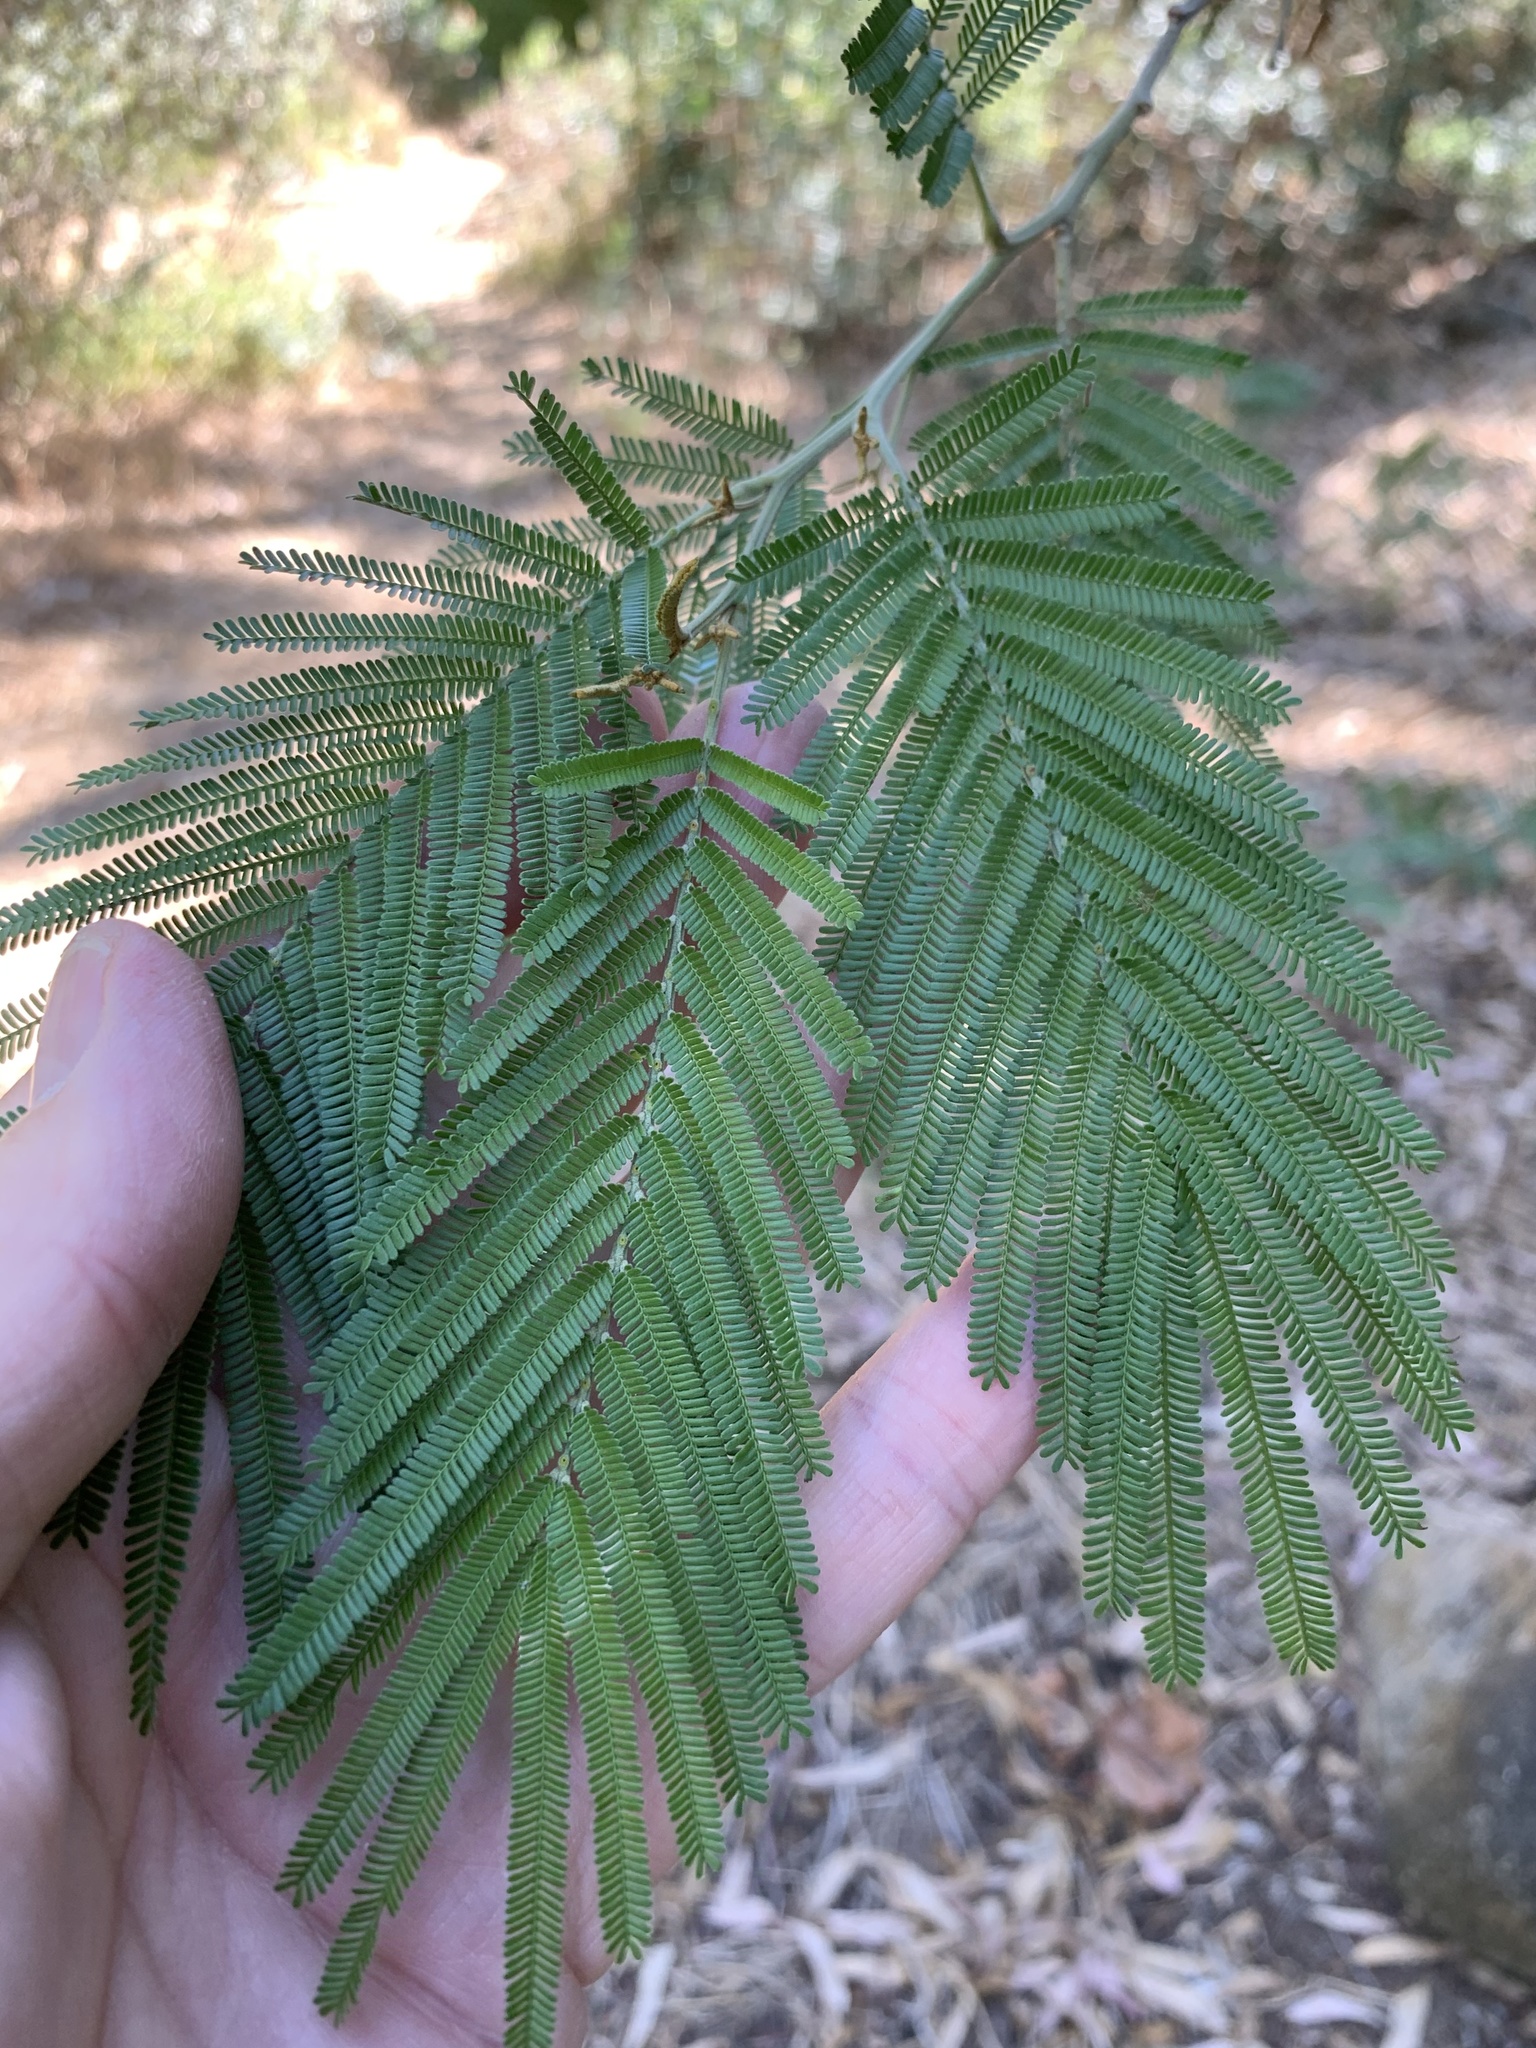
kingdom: Plantae
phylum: Tracheophyta
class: Magnoliopsida
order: Fabales
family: Fabaceae
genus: Acacia
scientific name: Acacia mearnsii
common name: Black wattle
